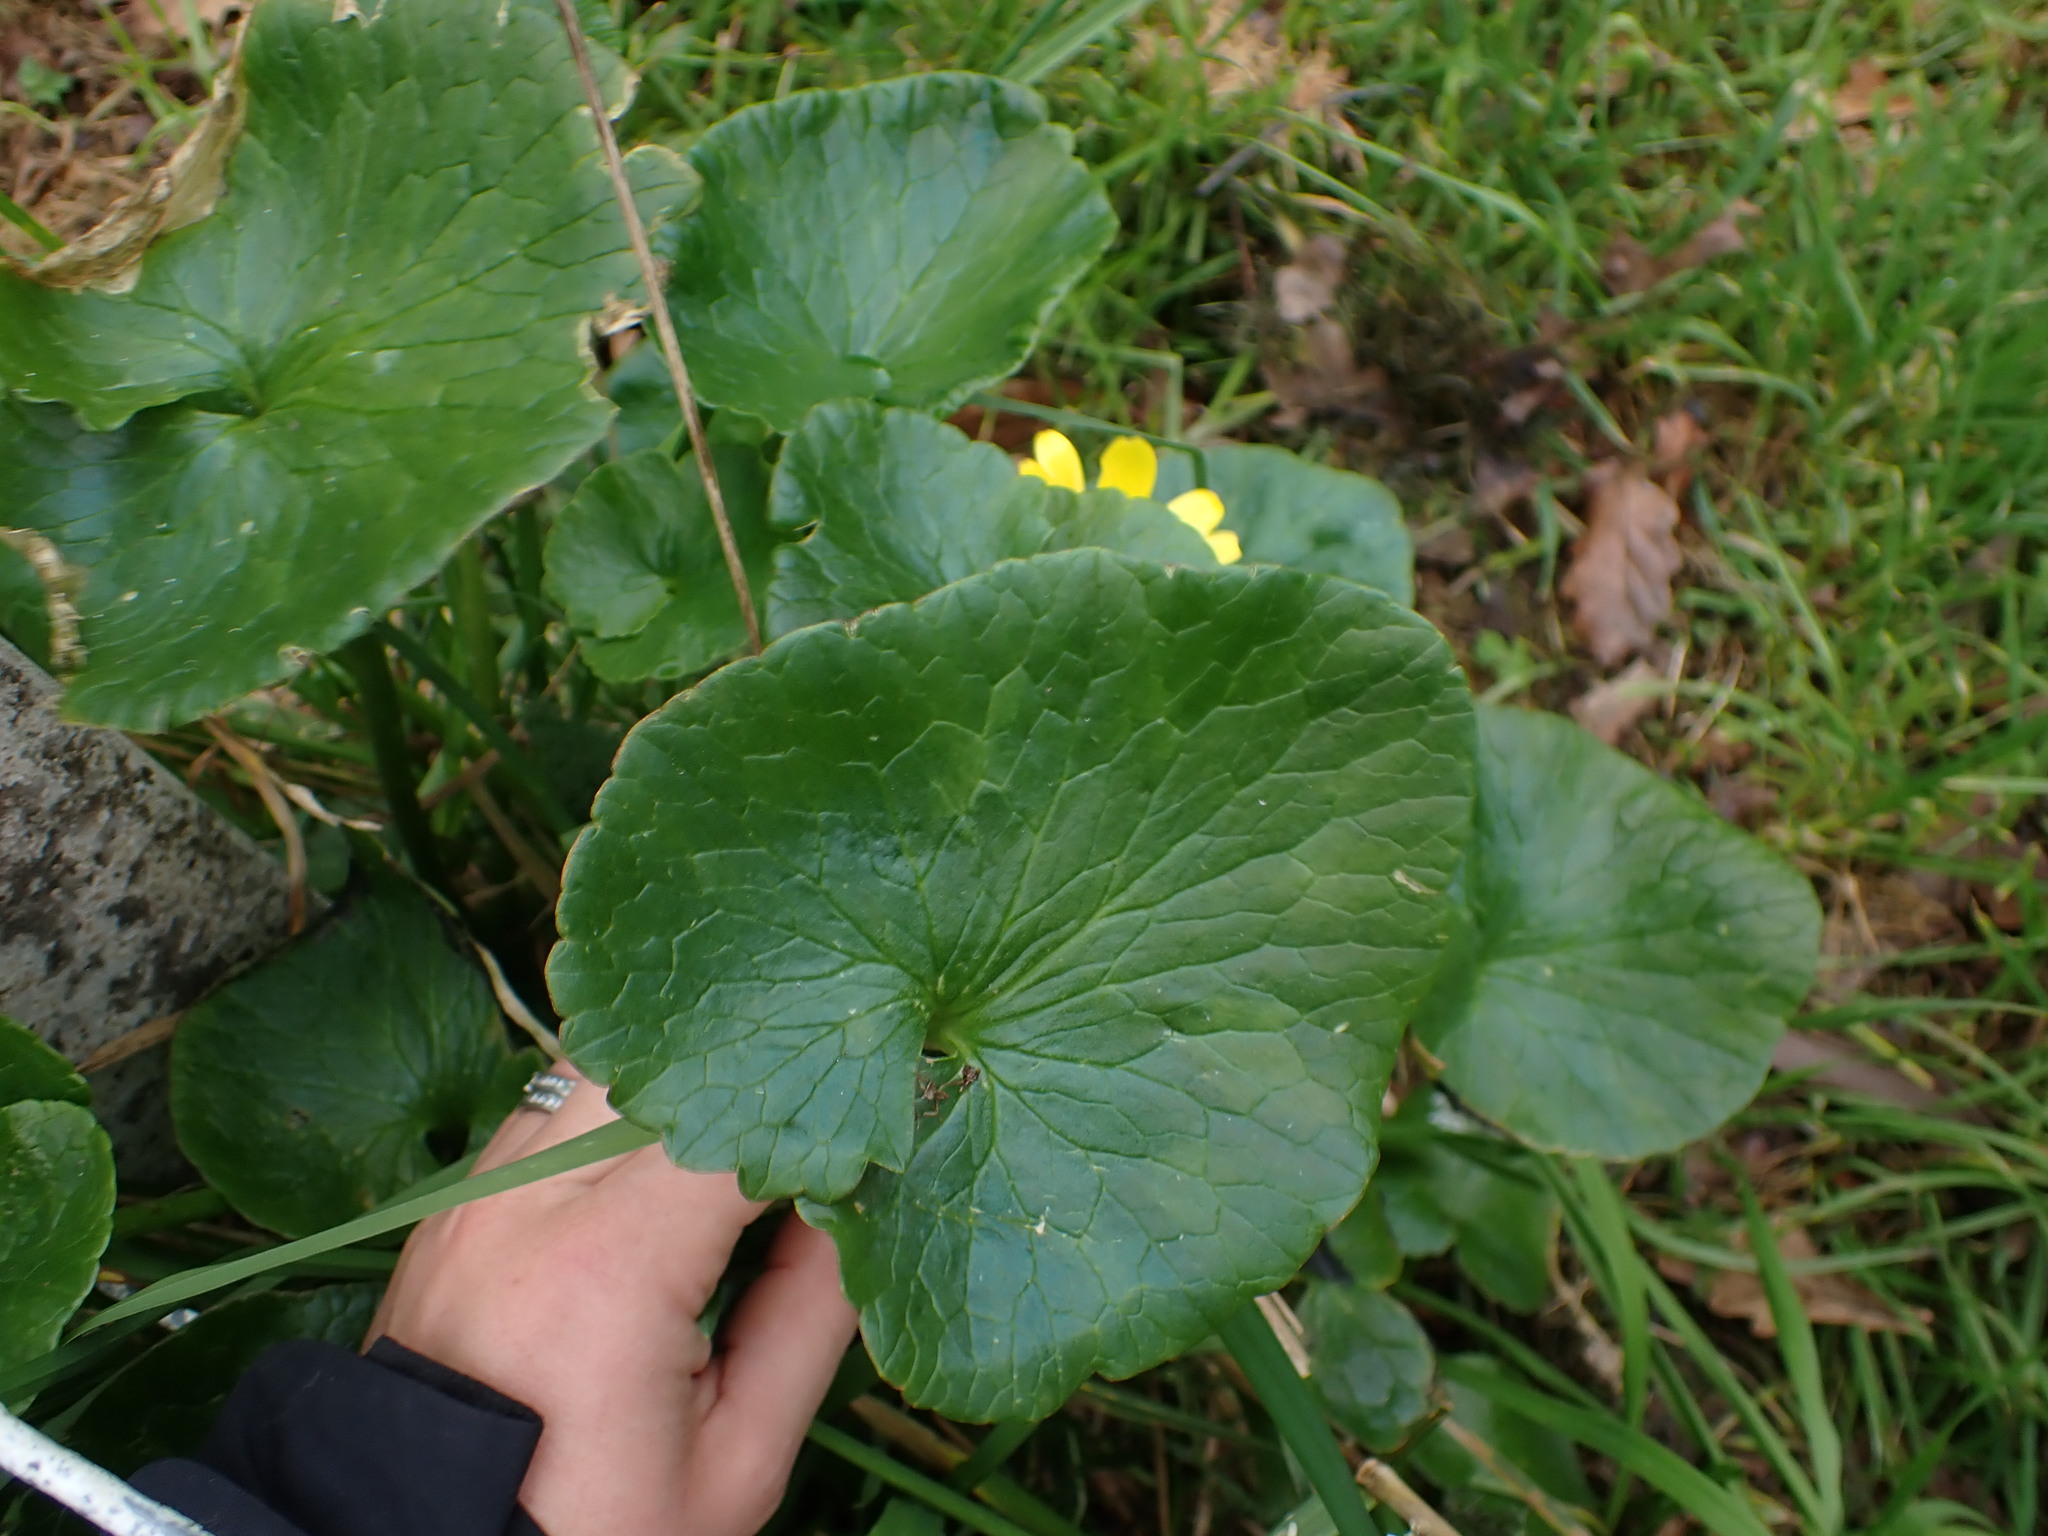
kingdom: Plantae
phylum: Tracheophyta
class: Magnoliopsida
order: Ranunculales
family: Ranunculaceae
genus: Ficaria
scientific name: Ficaria verna
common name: Lesser celandine
